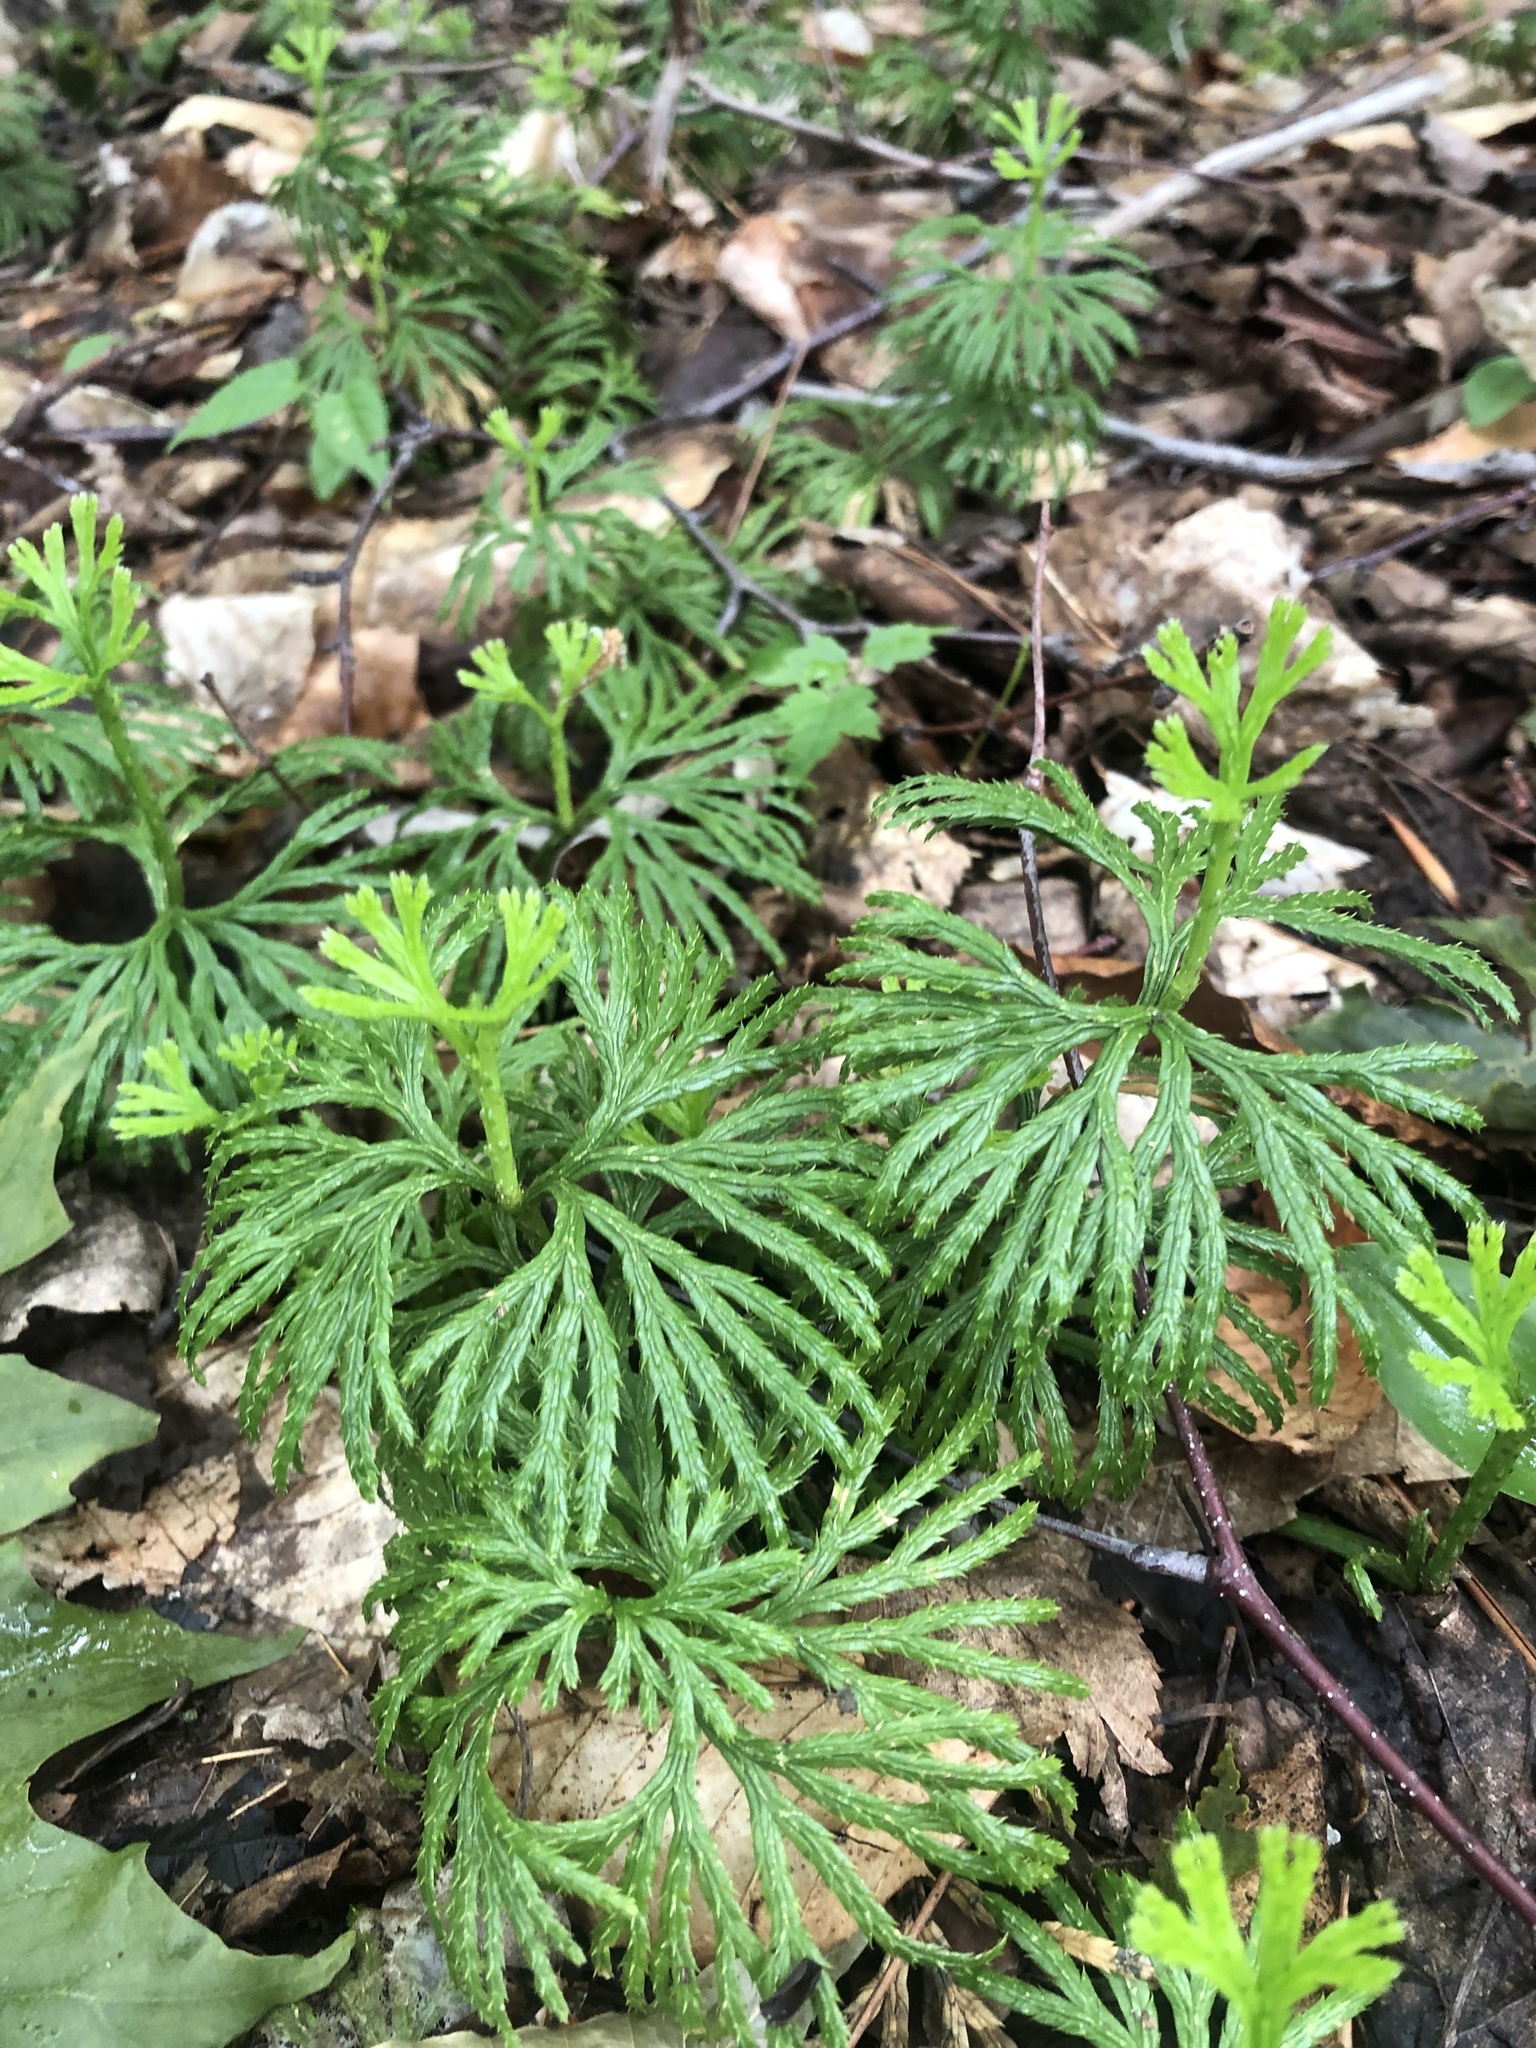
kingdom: Plantae
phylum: Tracheophyta
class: Lycopodiopsida
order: Lycopodiales
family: Lycopodiaceae
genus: Diphasiastrum
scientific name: Diphasiastrum digitatum
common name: Southern running-pine
